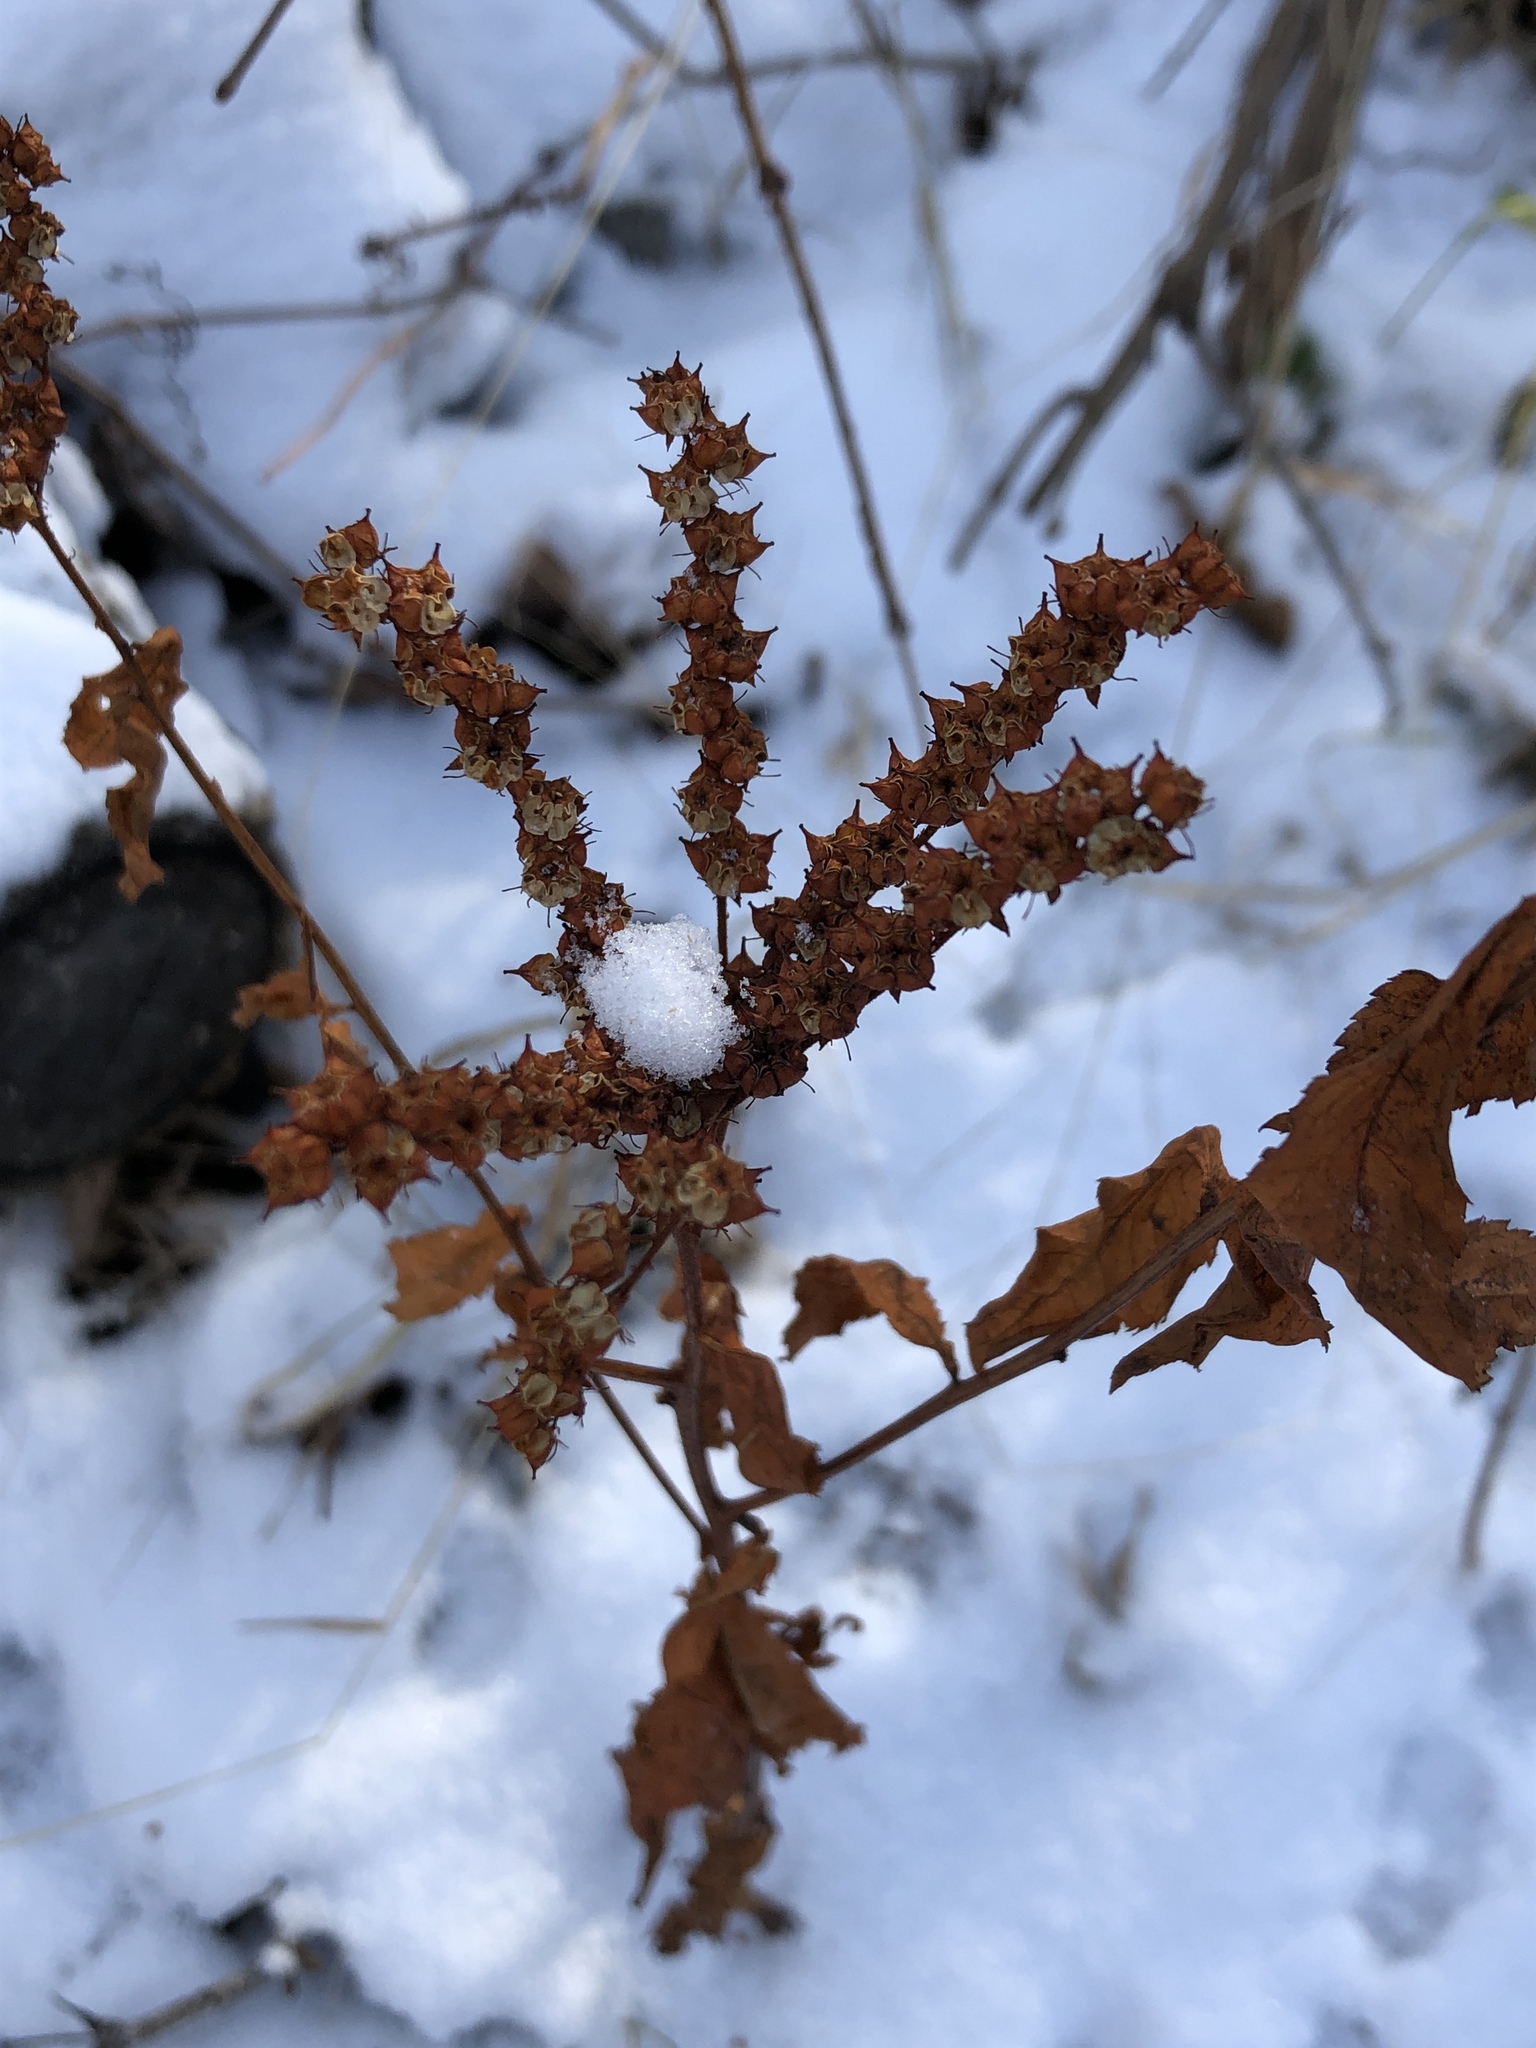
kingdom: Plantae
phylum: Tracheophyta
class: Magnoliopsida
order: Saxifragales
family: Penthoraceae
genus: Penthorum
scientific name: Penthorum sedoides
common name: Ditch stonecrop
